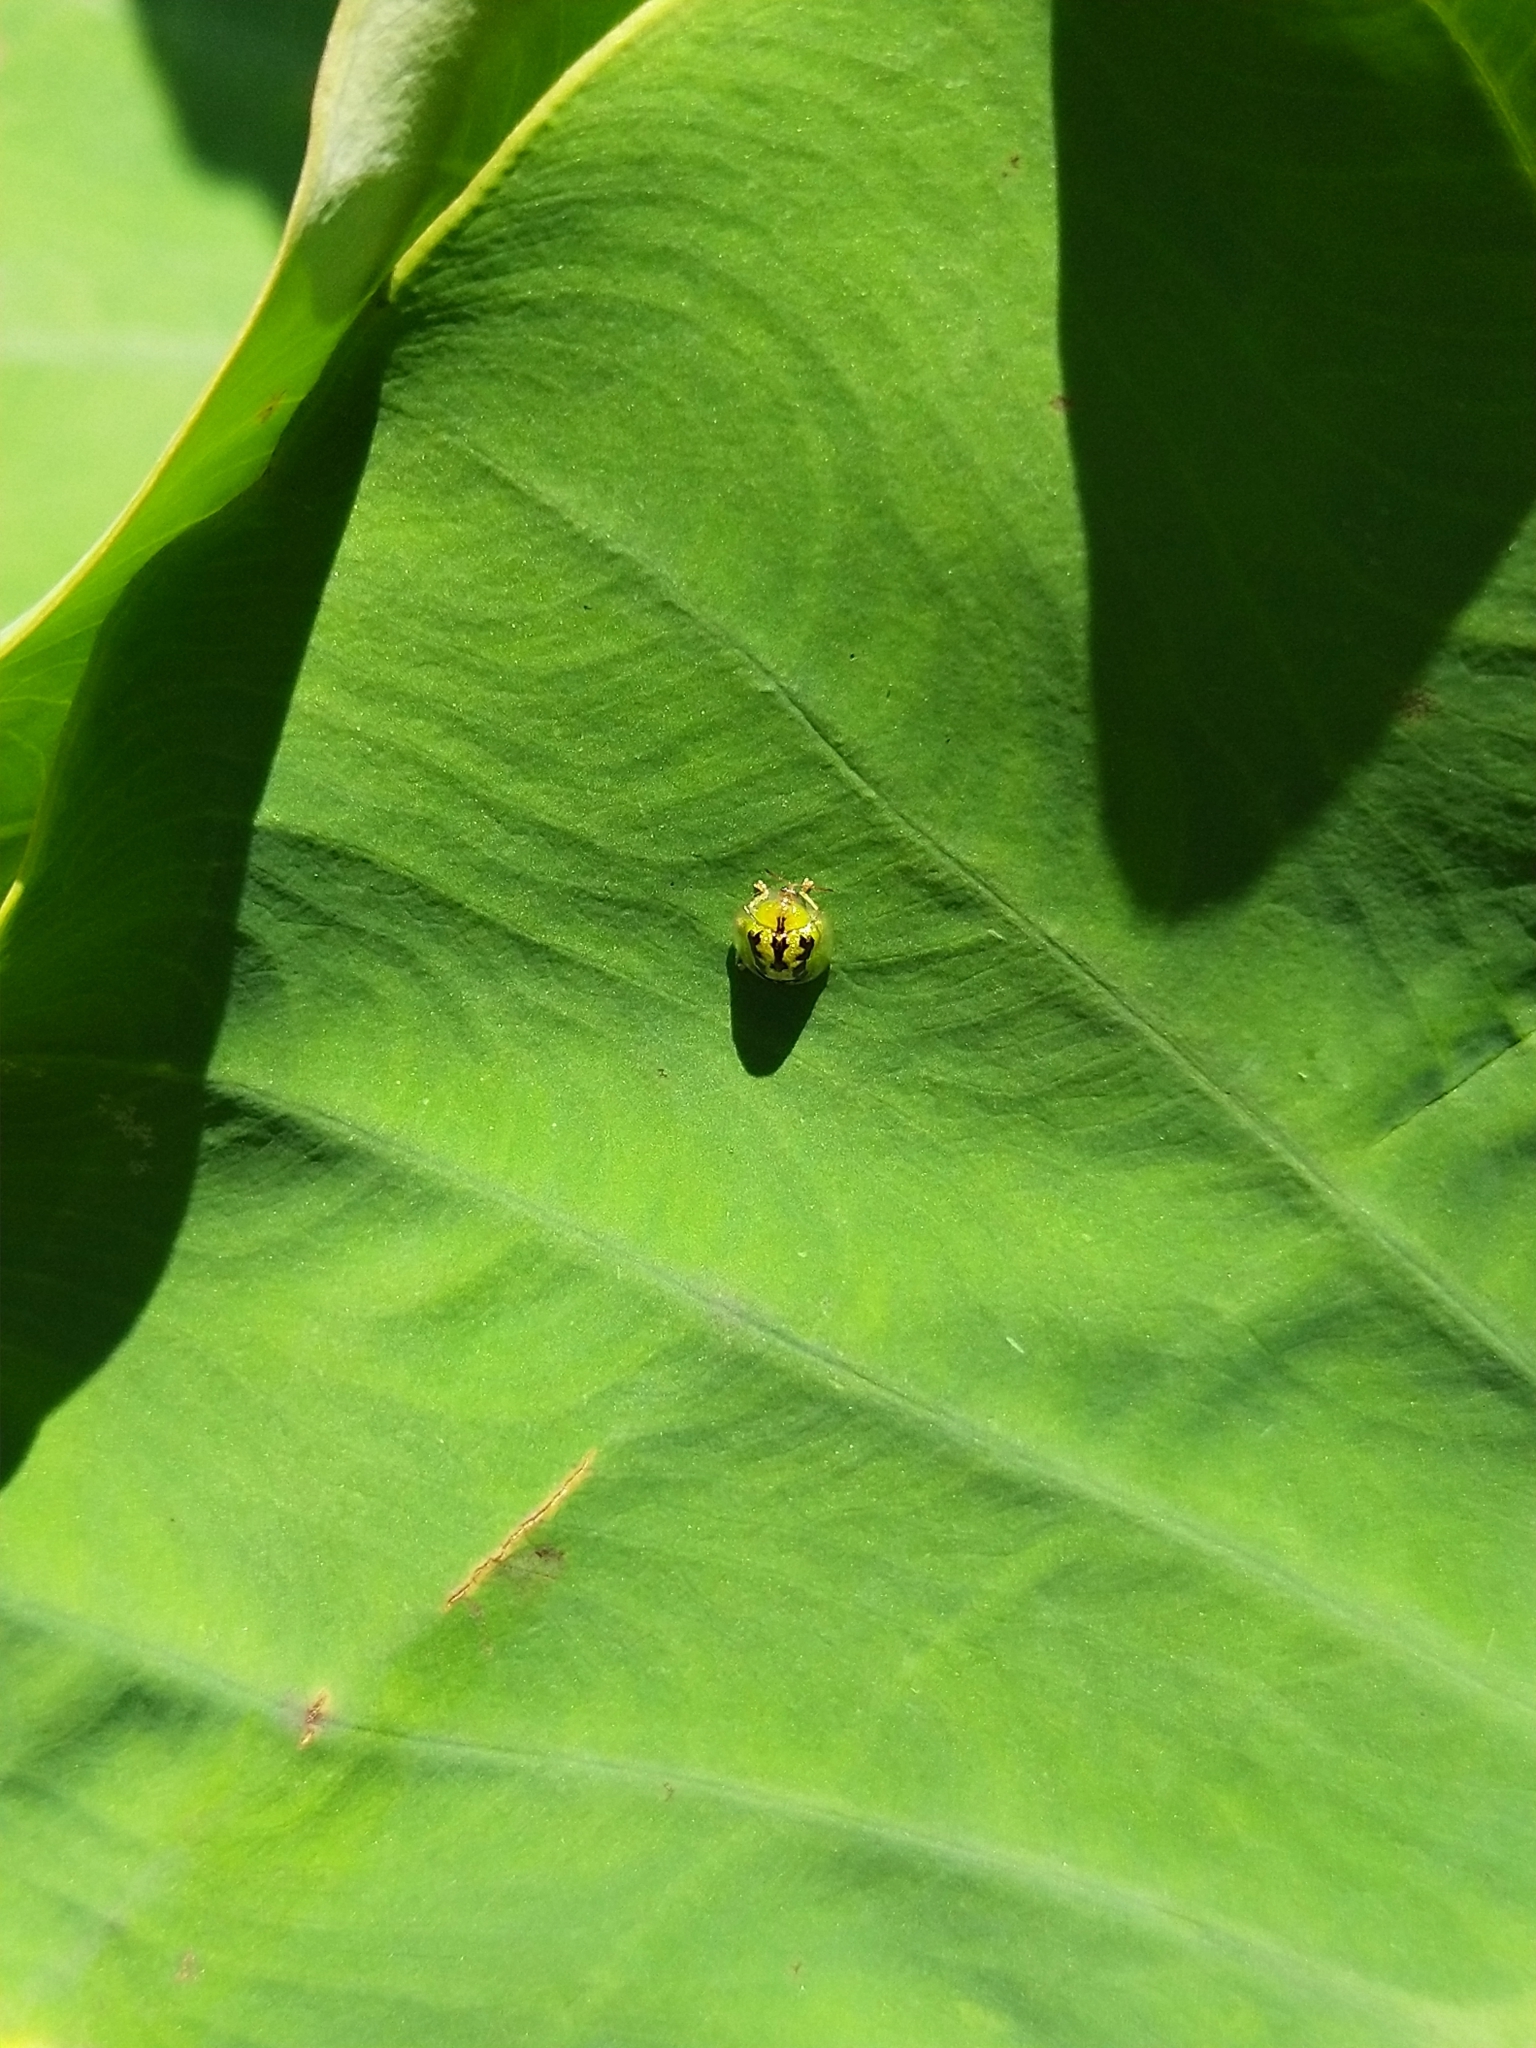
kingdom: Animalia
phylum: Arthropoda
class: Insecta
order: Coleoptera
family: Chrysomelidae
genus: Cassida
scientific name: Cassida circumdata
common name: Tortoise beetle
